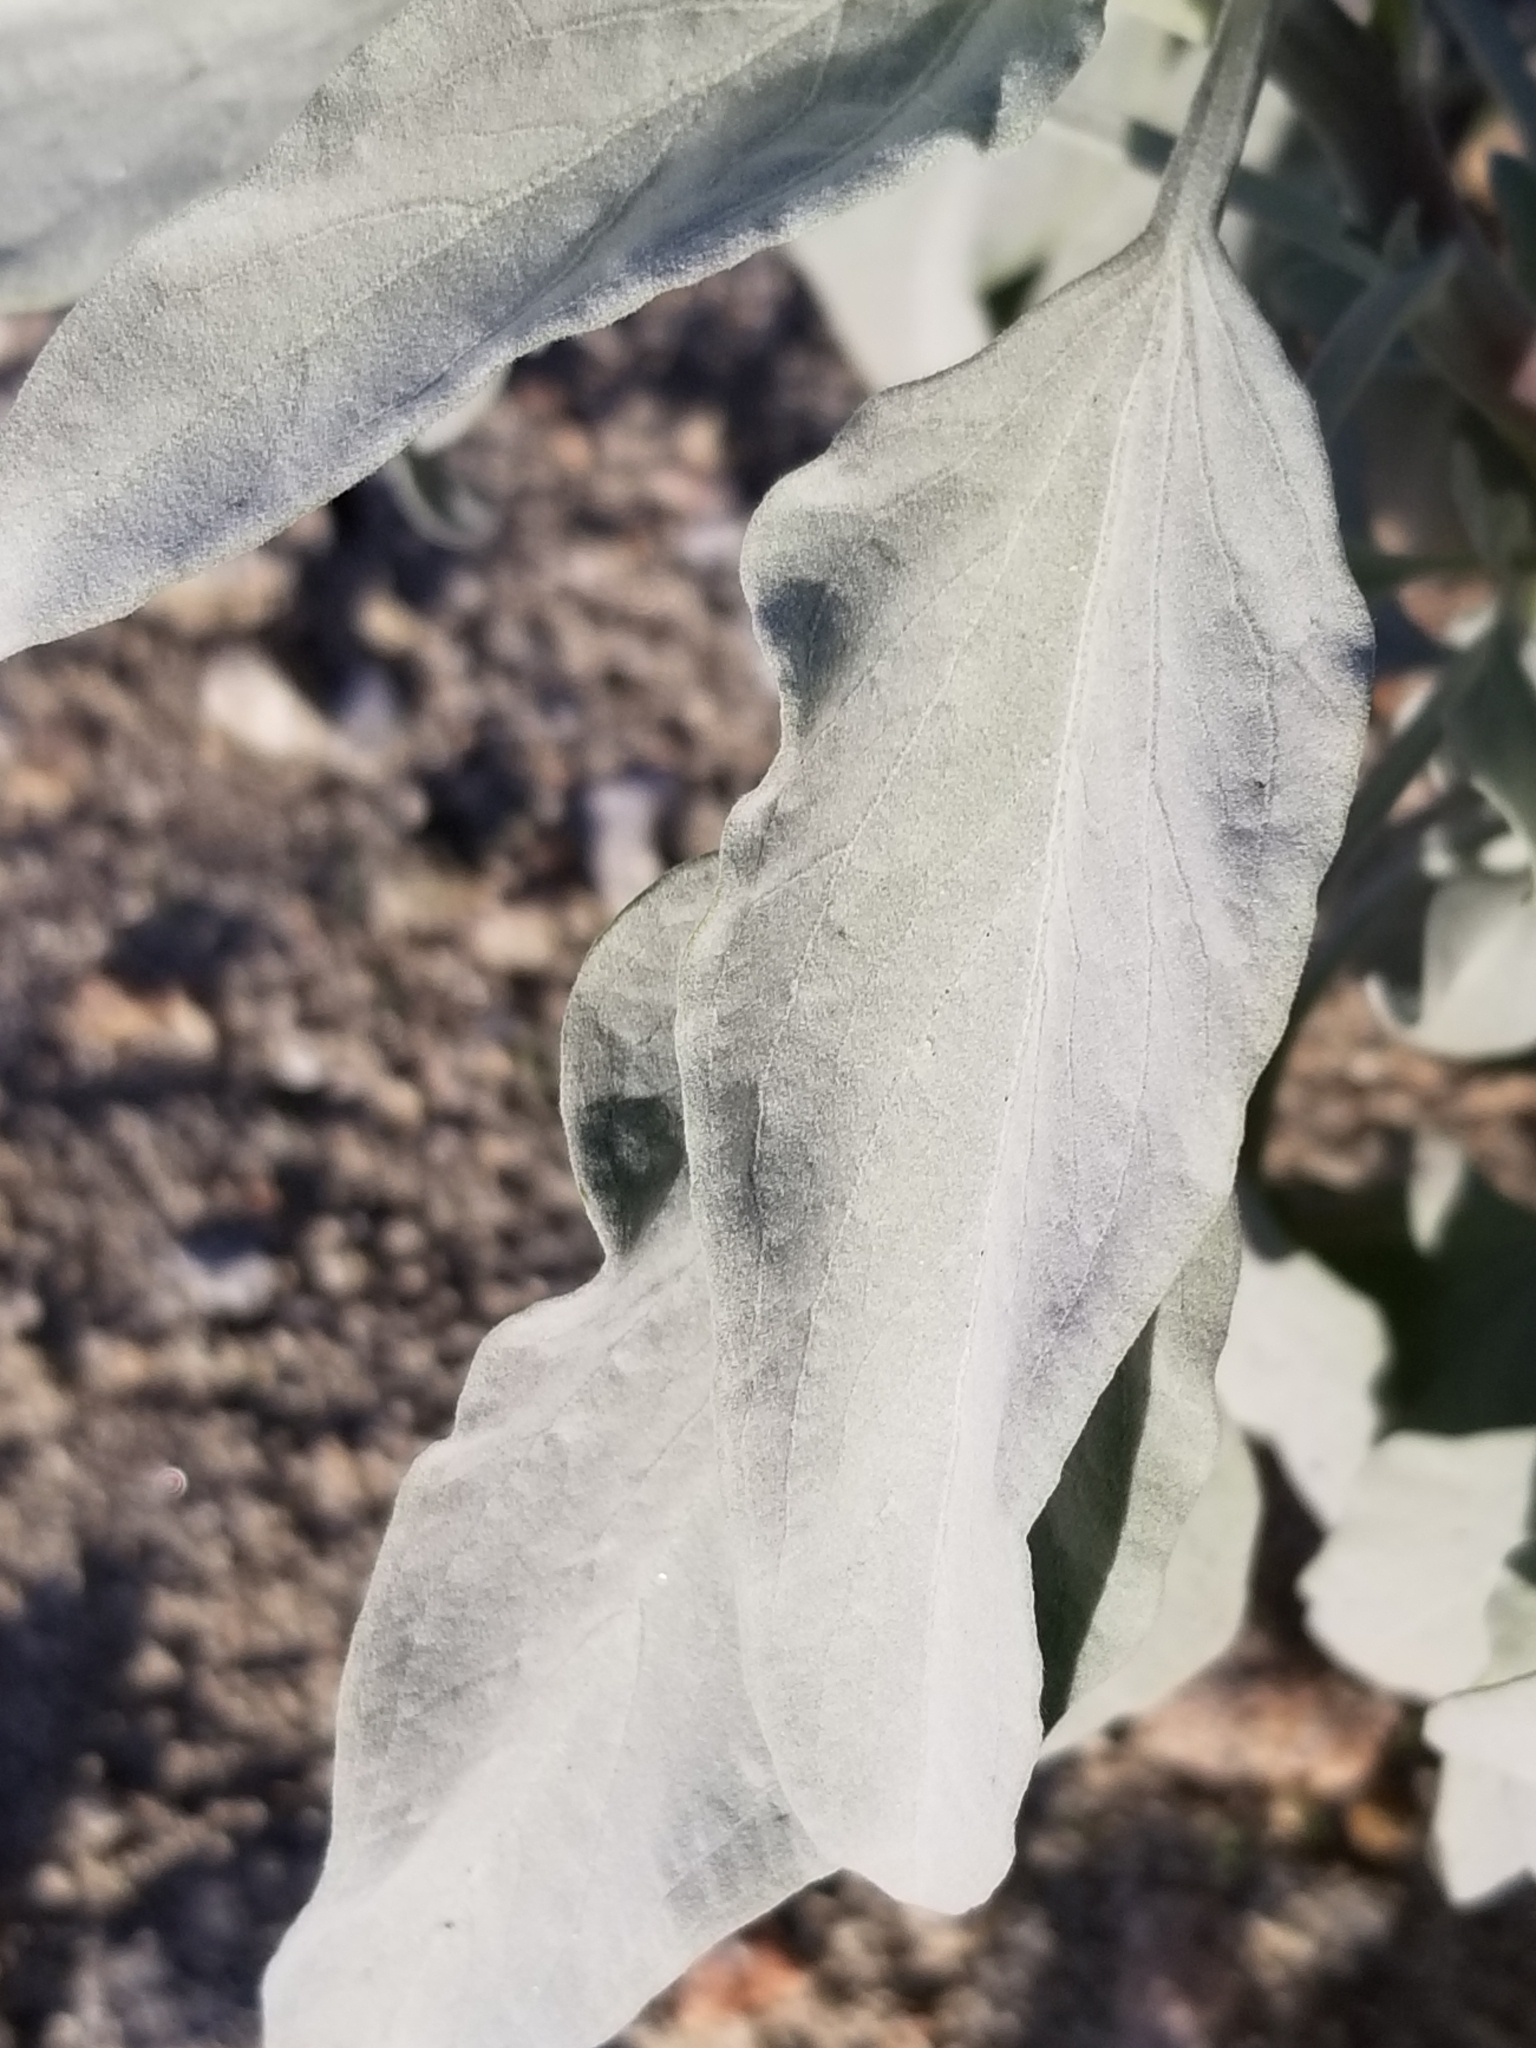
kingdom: Plantae
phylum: Tracheophyta
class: Magnoliopsida
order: Asterales
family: Asteraceae
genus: Encelia
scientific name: Encelia farinosa
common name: Brittlebush
